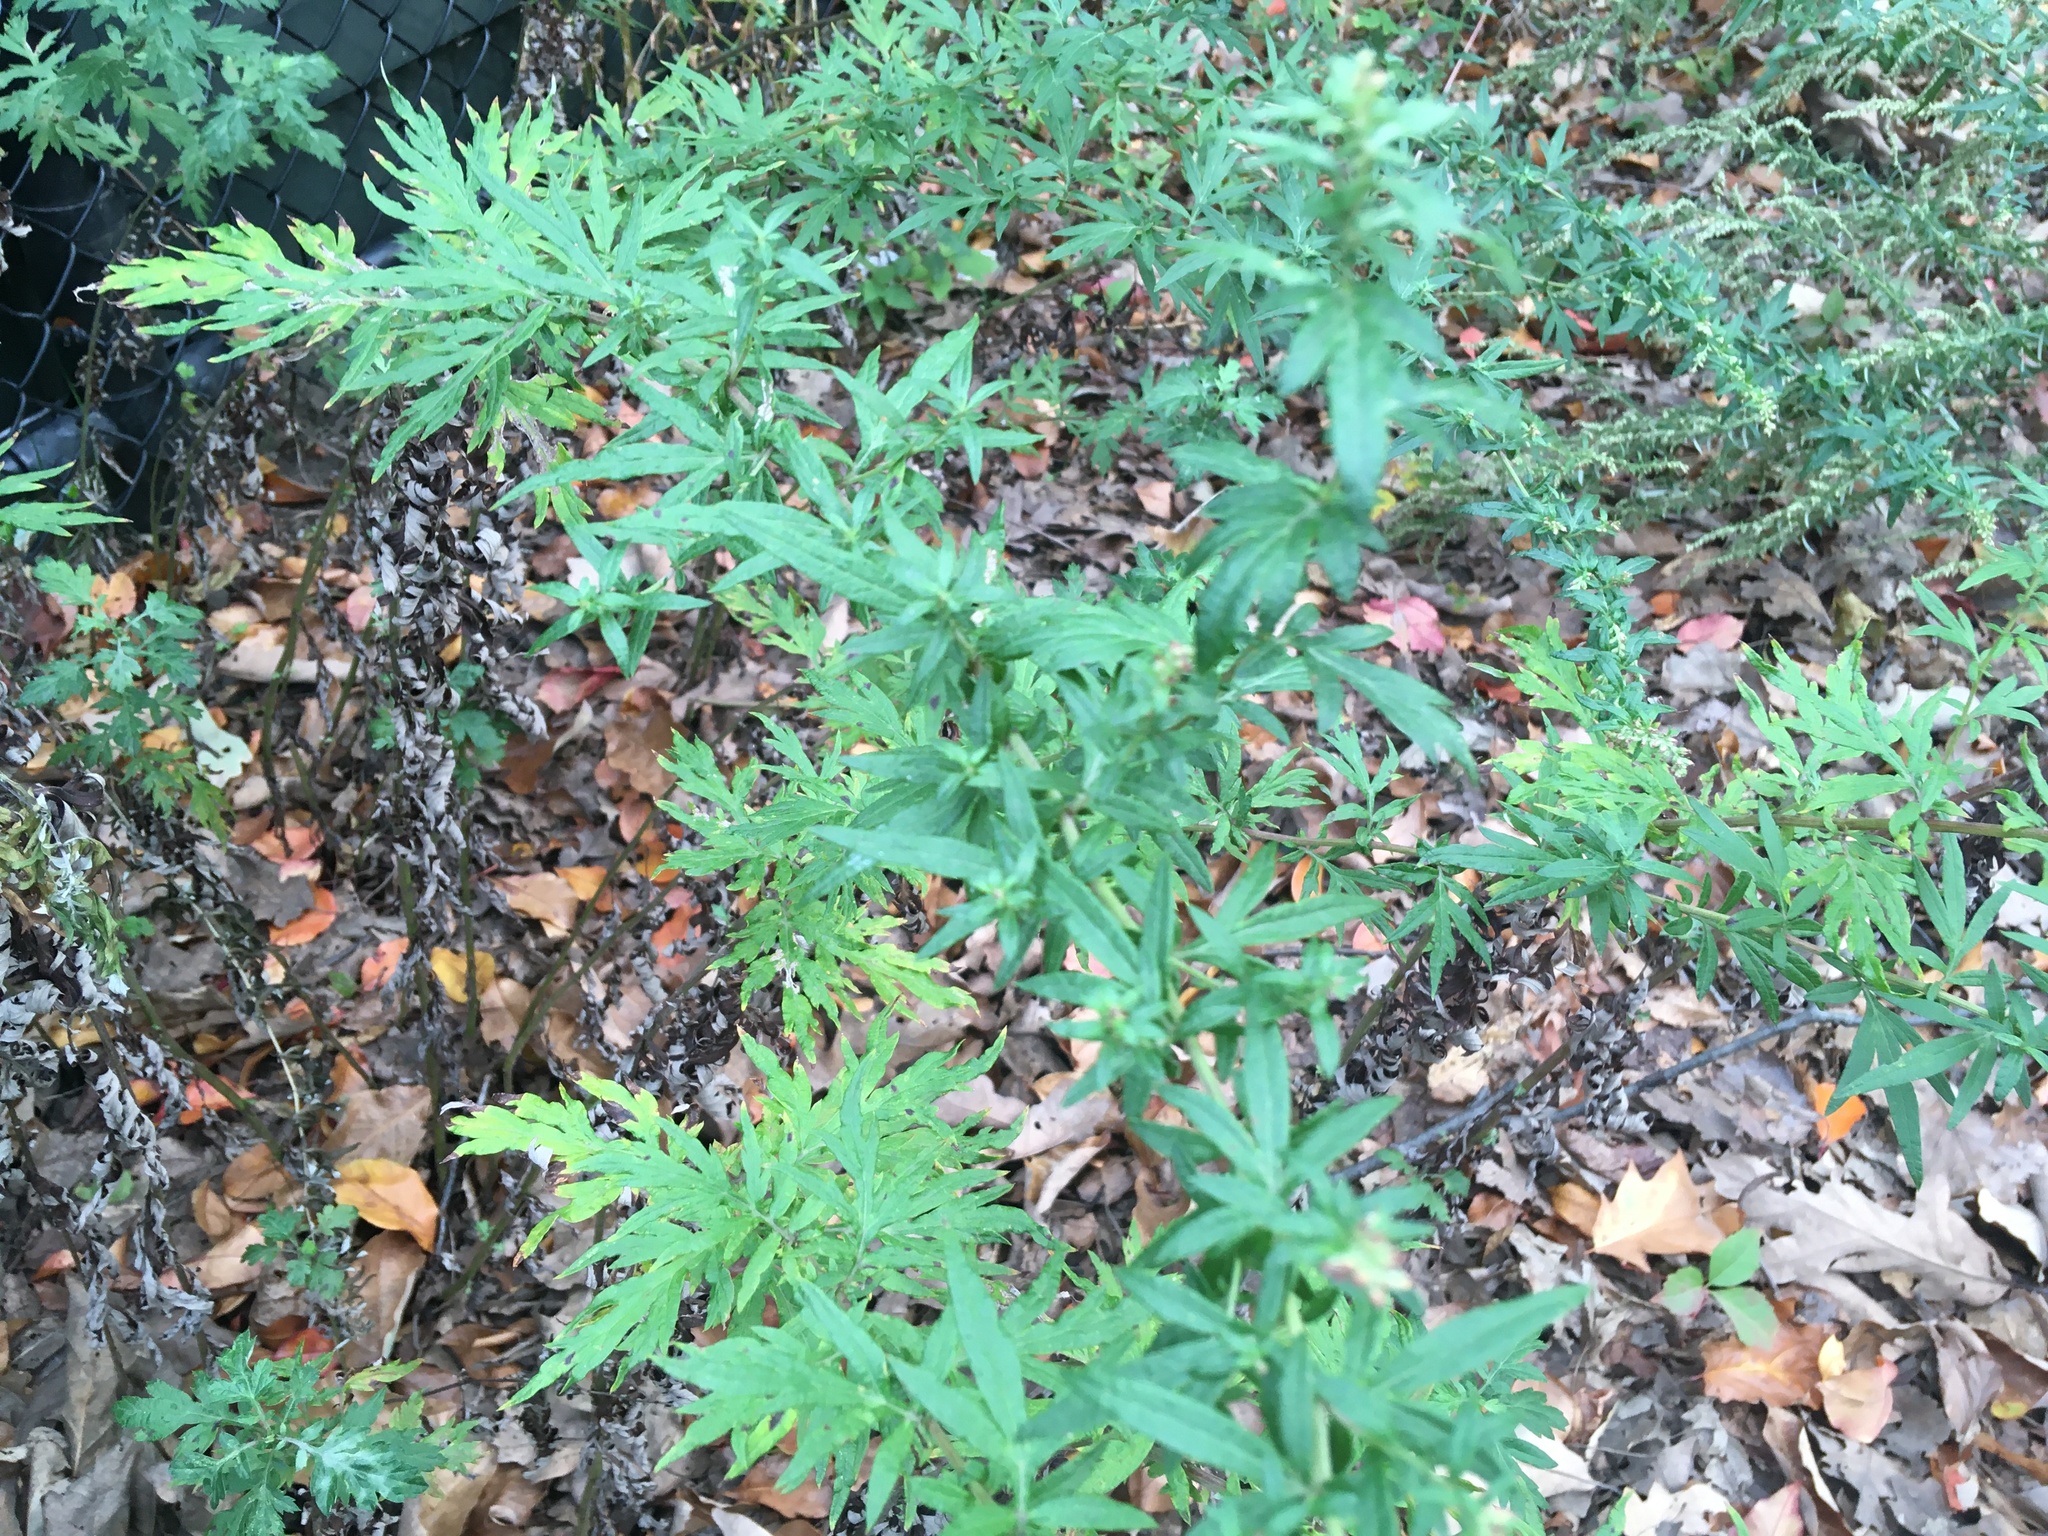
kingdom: Plantae
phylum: Tracheophyta
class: Magnoliopsida
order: Asterales
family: Asteraceae
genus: Artemisia
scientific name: Artemisia vulgaris
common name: Mugwort
